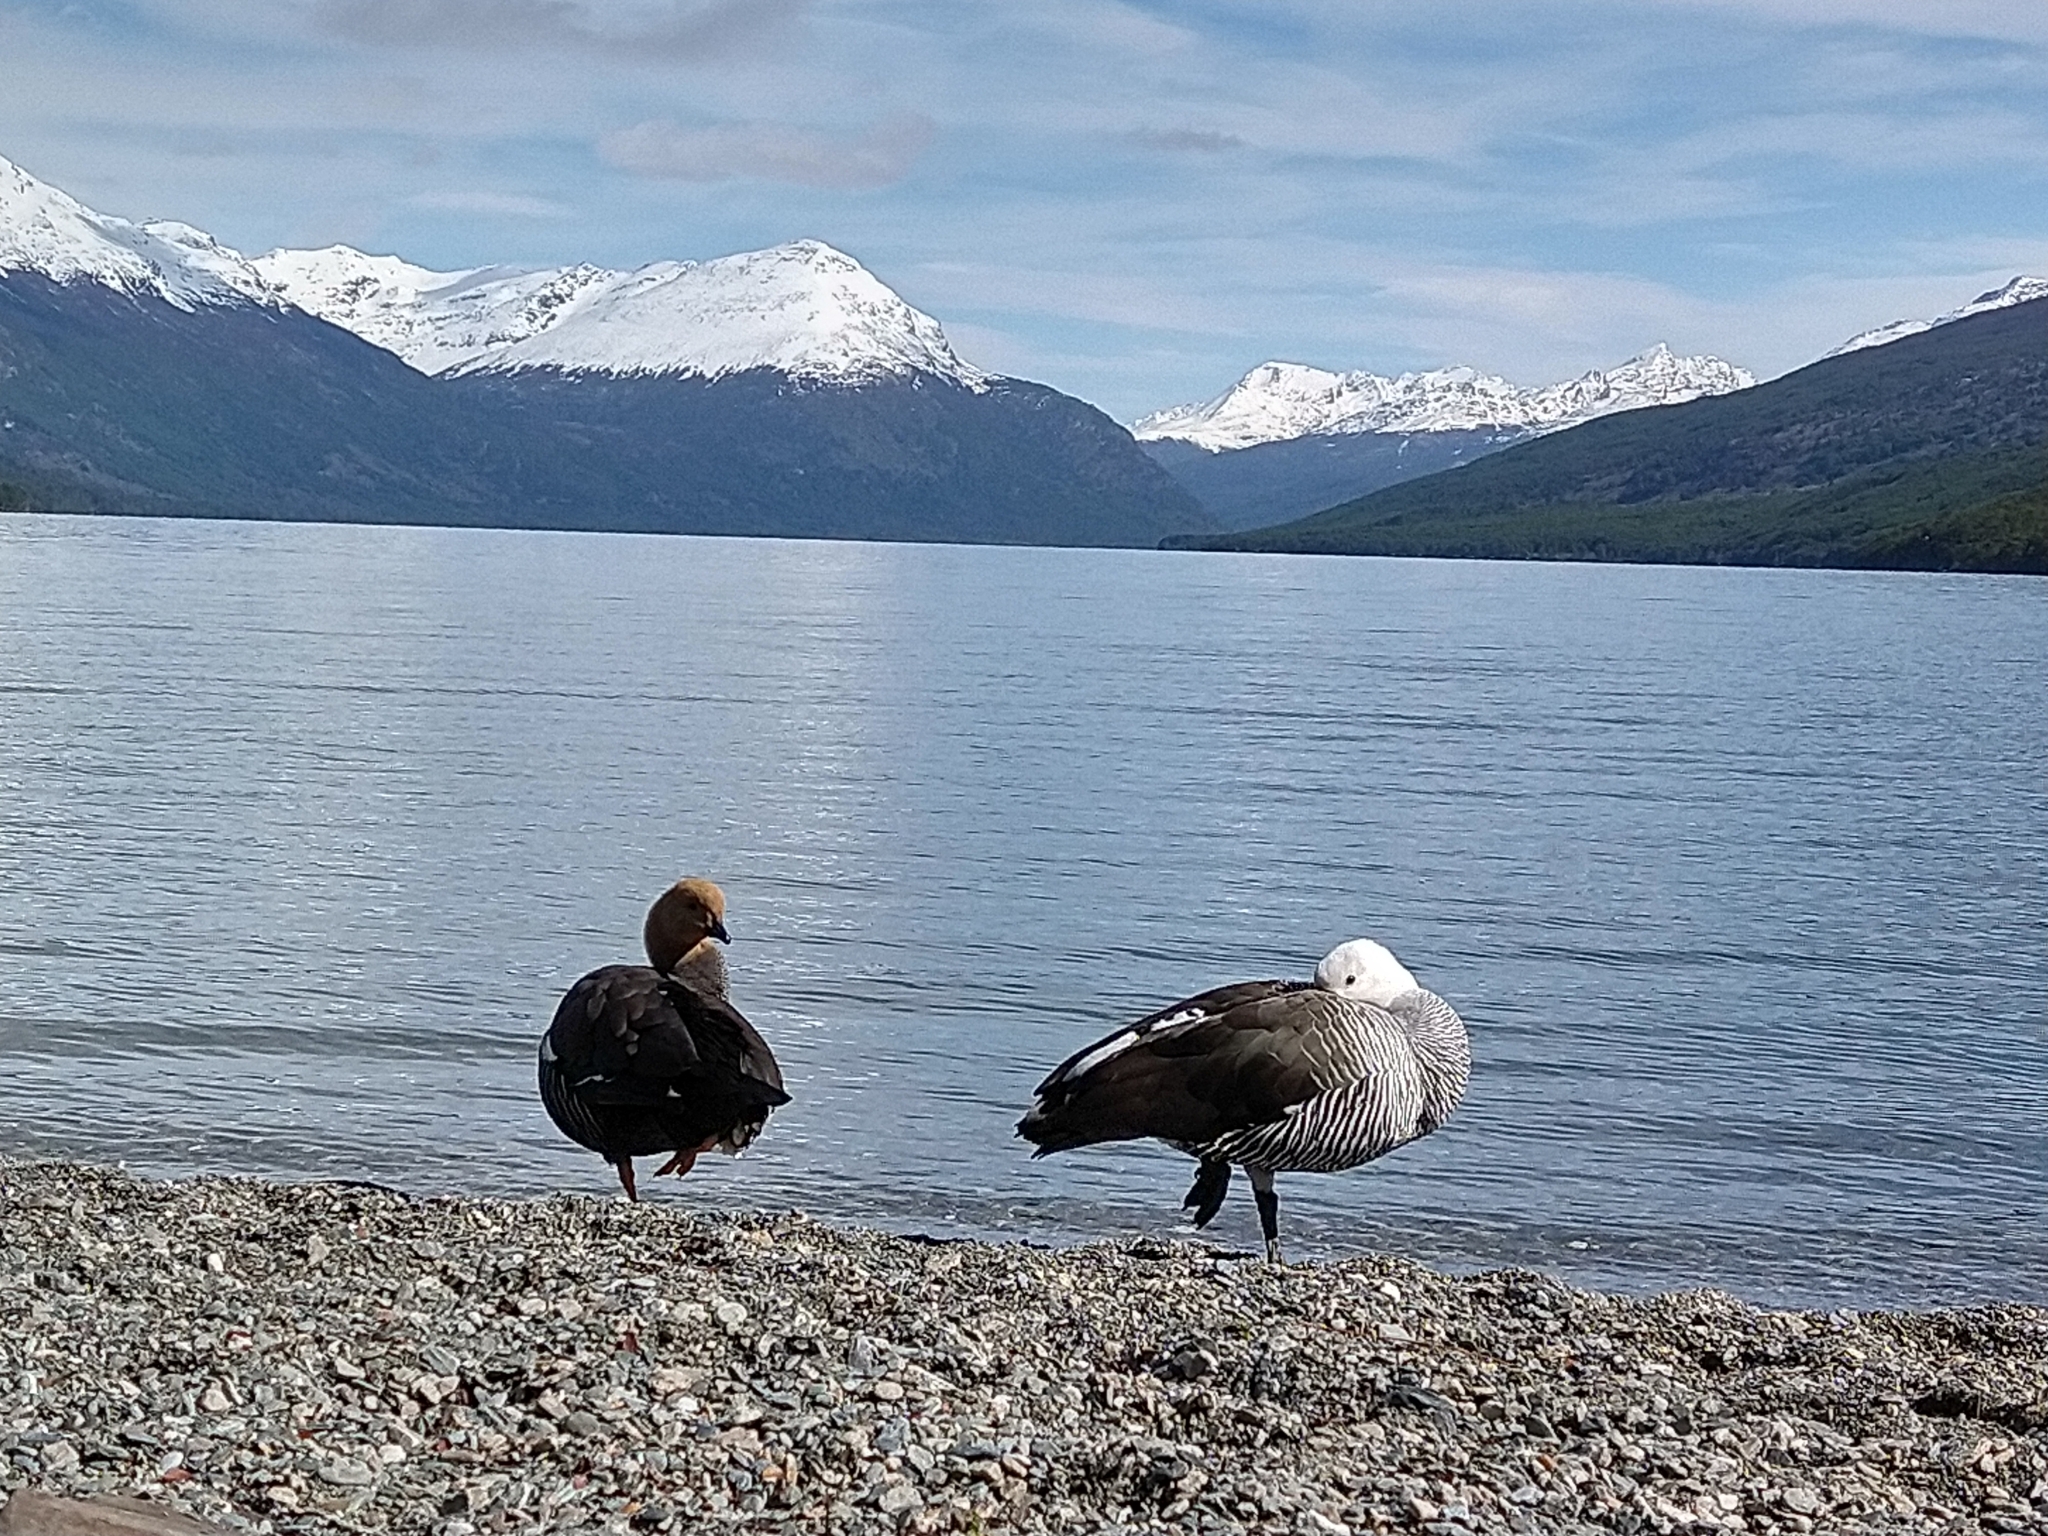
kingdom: Animalia
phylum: Chordata
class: Aves
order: Anseriformes
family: Anatidae
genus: Chloephaga
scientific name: Chloephaga picta
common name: Upland goose
